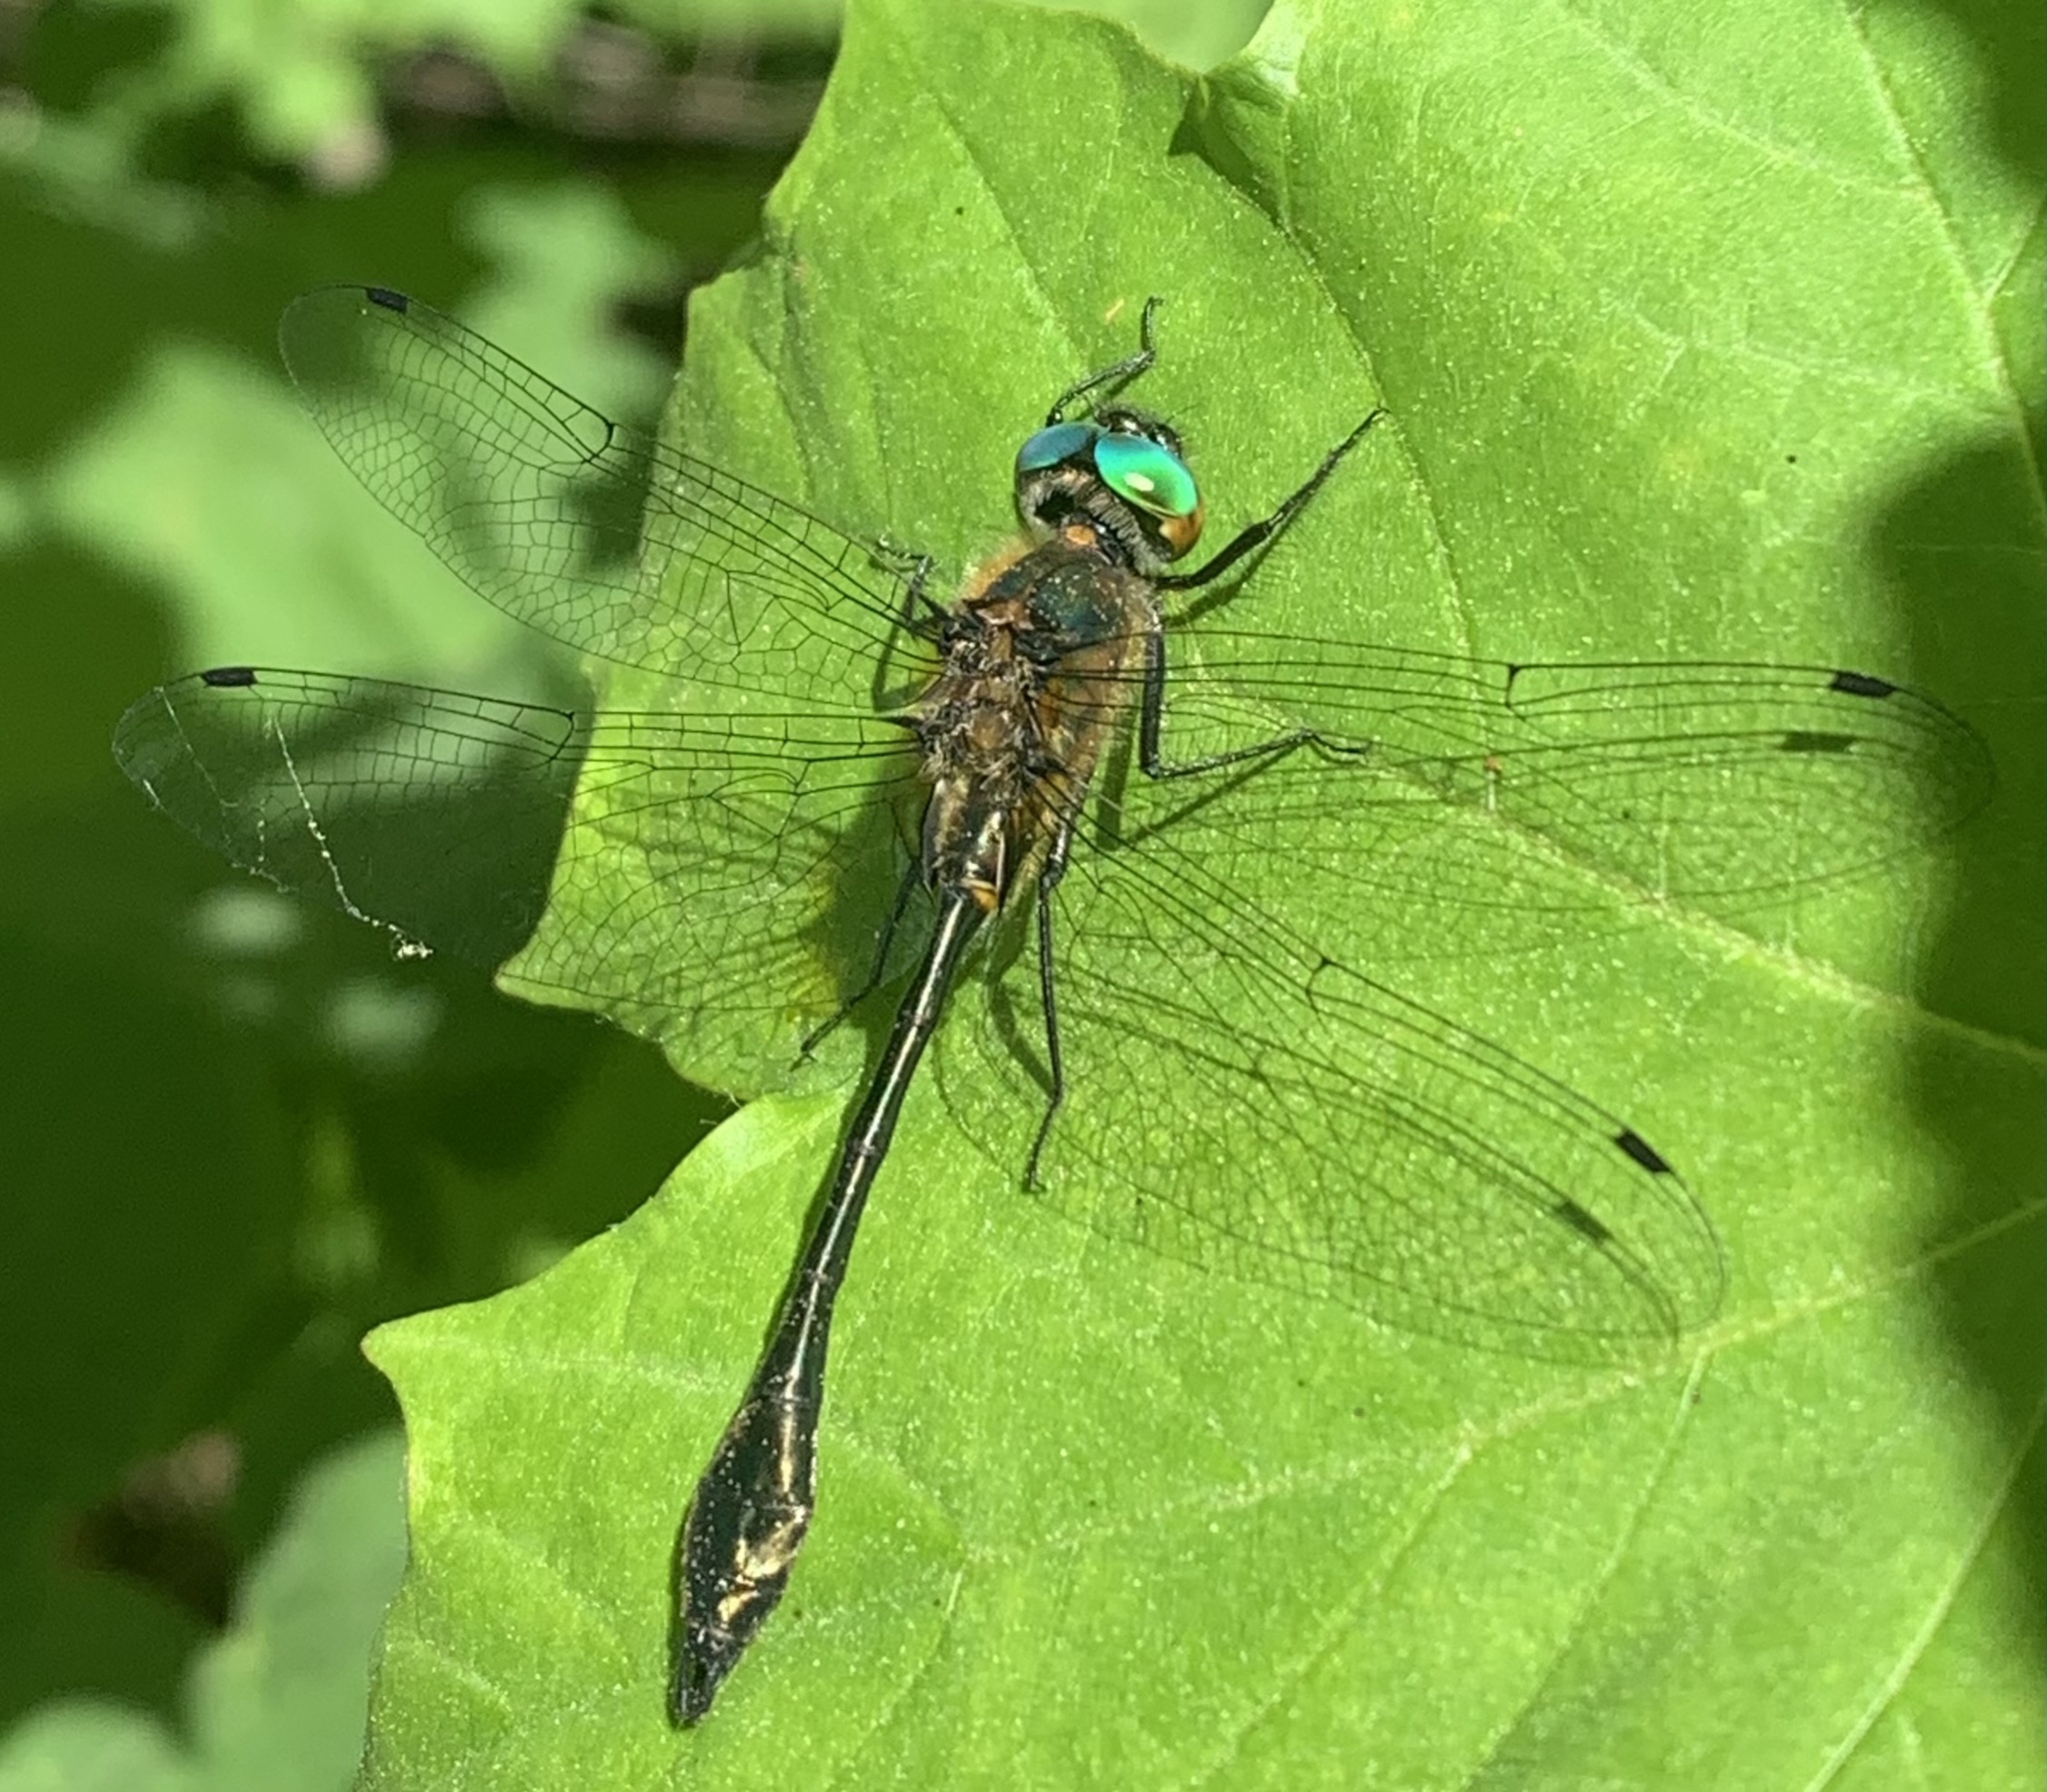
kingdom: Animalia
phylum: Arthropoda
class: Insecta
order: Odonata
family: Corduliidae
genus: Dorocordulia
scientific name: Dorocordulia libera
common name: Racket-tailed emerald
